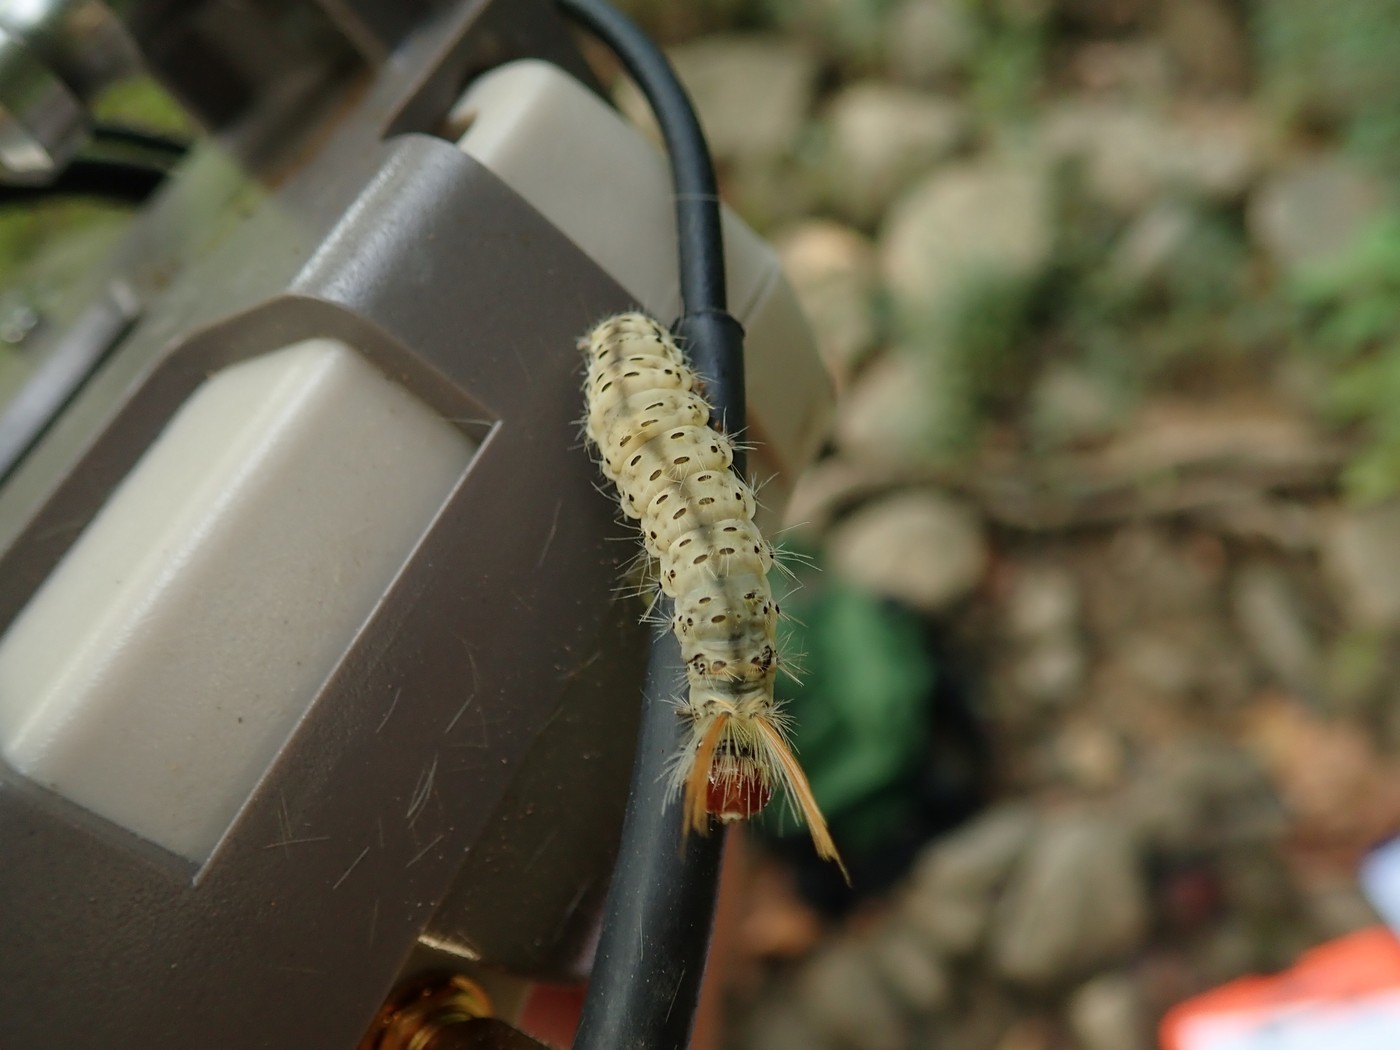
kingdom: Animalia
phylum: Arthropoda
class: Insecta
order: Lepidoptera
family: Erebidae
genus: Halysidota
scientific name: Halysidota harrisii
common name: Sycamore tussock moth
